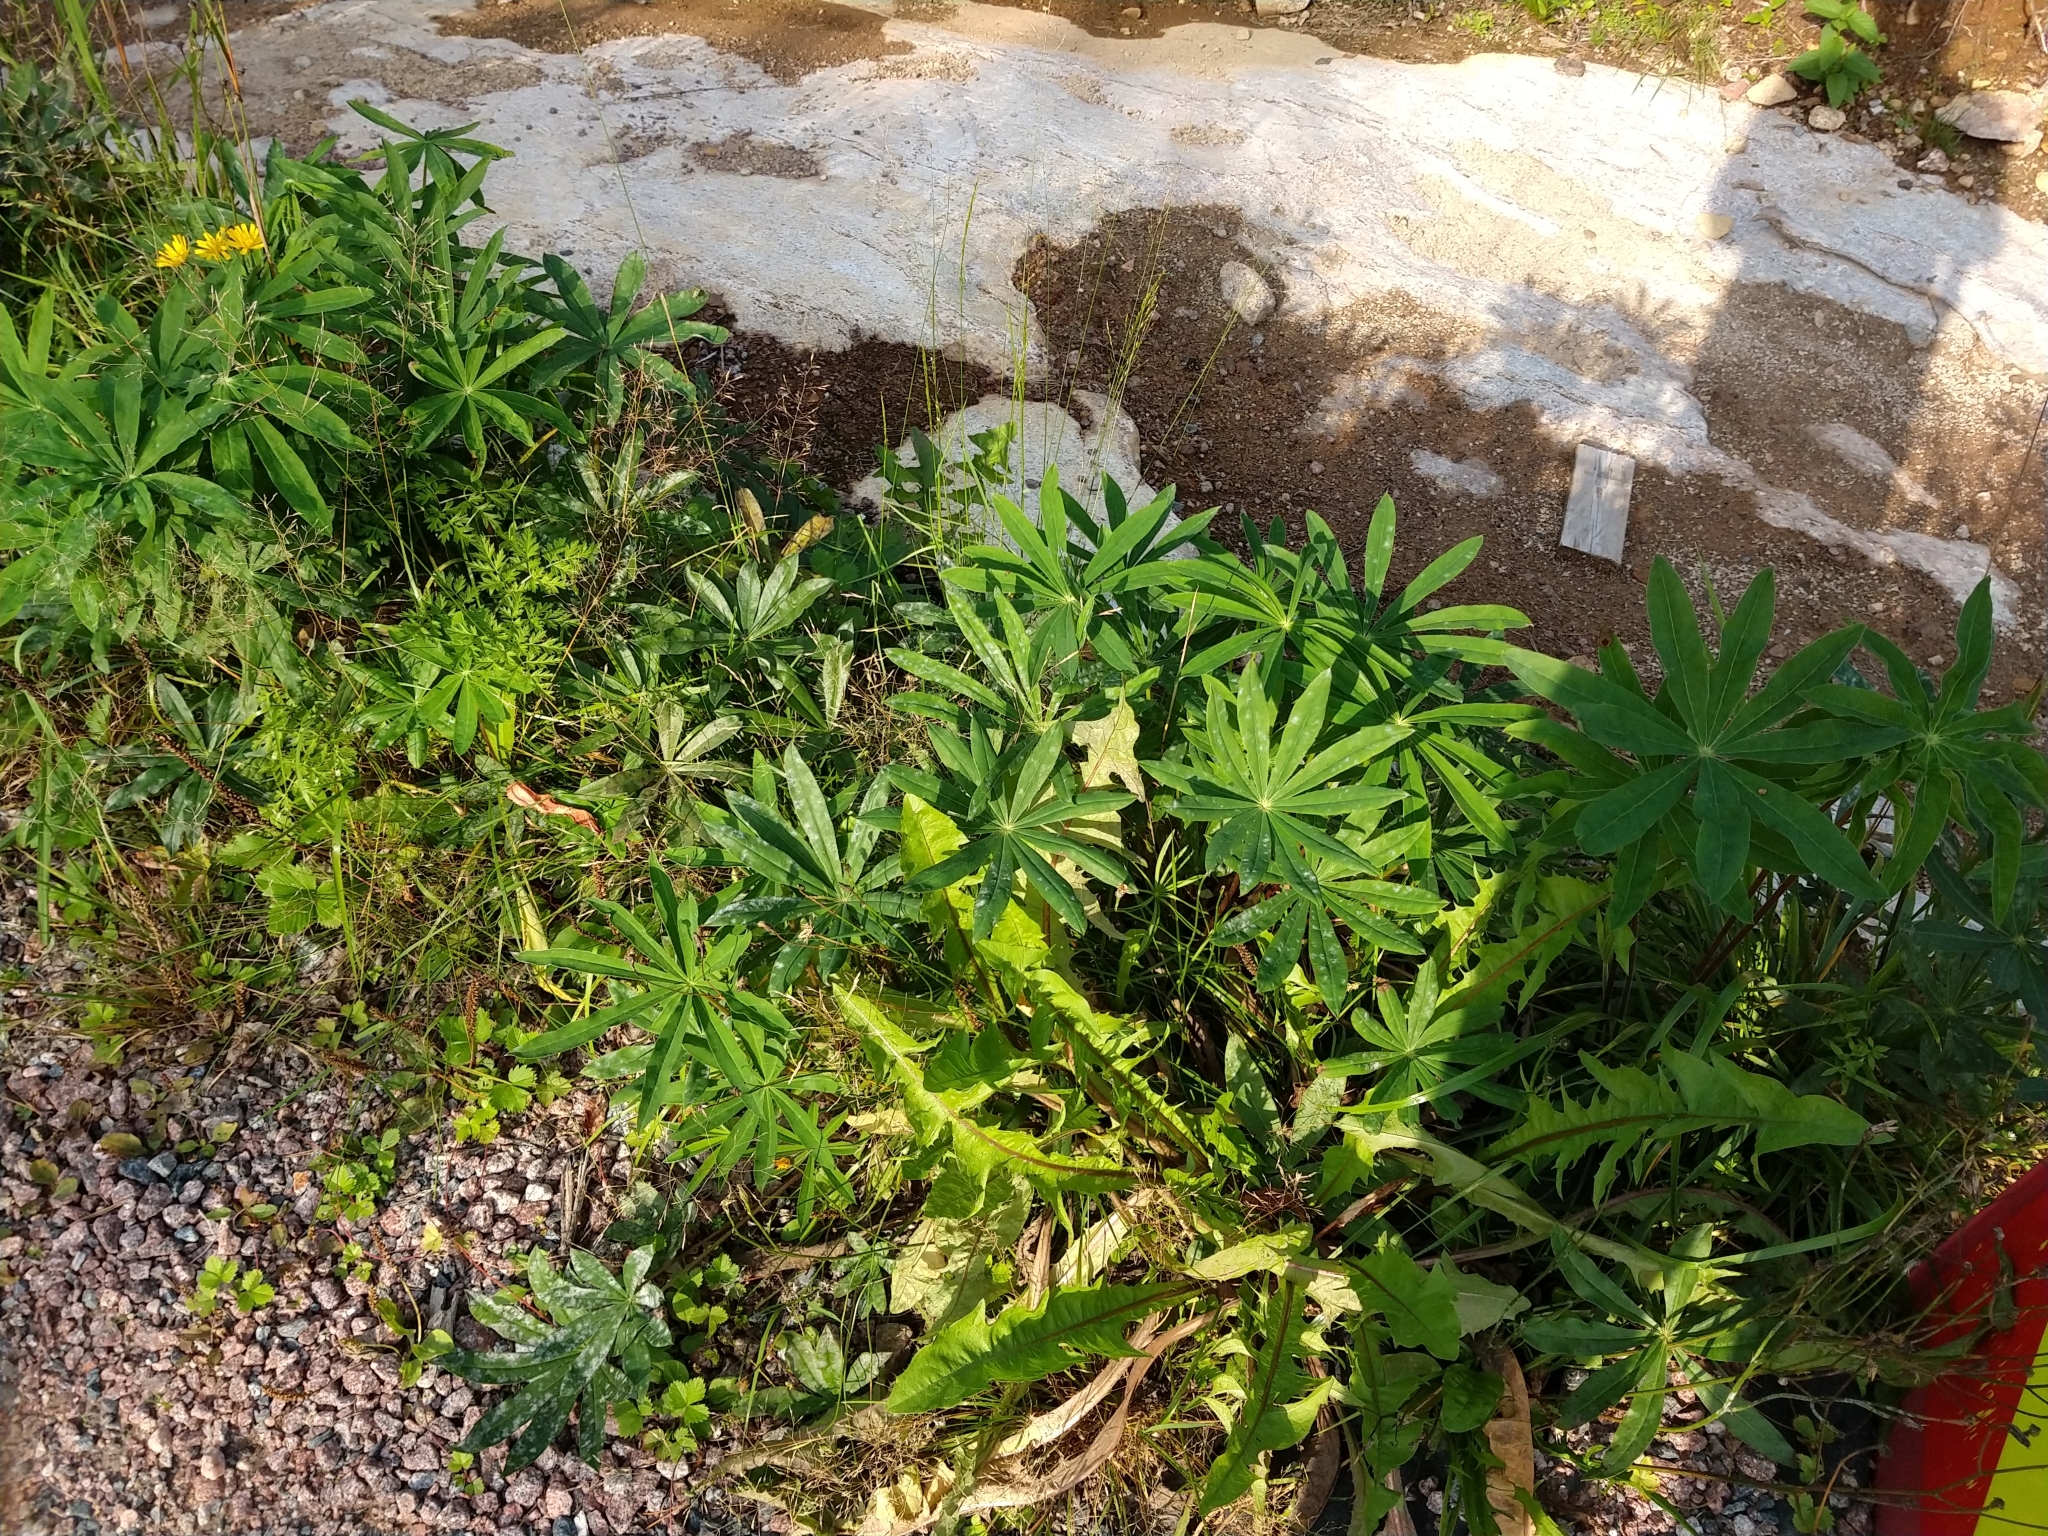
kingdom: Plantae
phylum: Tracheophyta
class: Magnoliopsida
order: Fabales
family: Fabaceae
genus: Lupinus
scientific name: Lupinus polyphyllus
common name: Garden lupin
